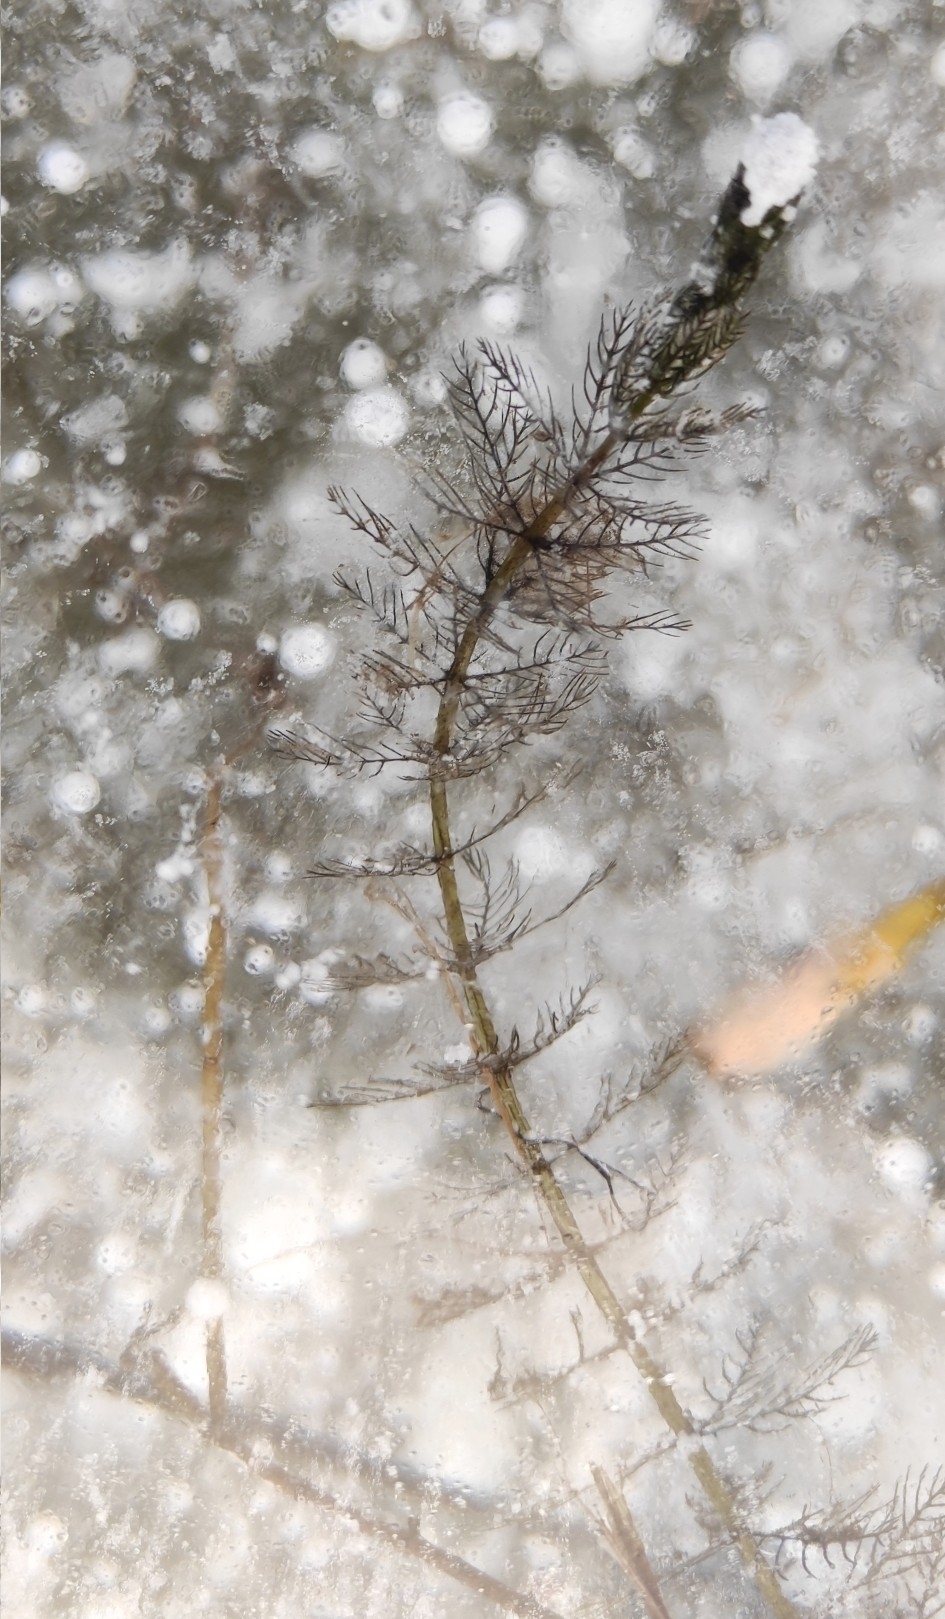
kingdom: Plantae
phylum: Tracheophyta
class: Magnoliopsida
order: Saxifragales
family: Haloragaceae
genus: Myriophyllum
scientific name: Myriophyllum sibiricum
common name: Siberian water-milfoil
